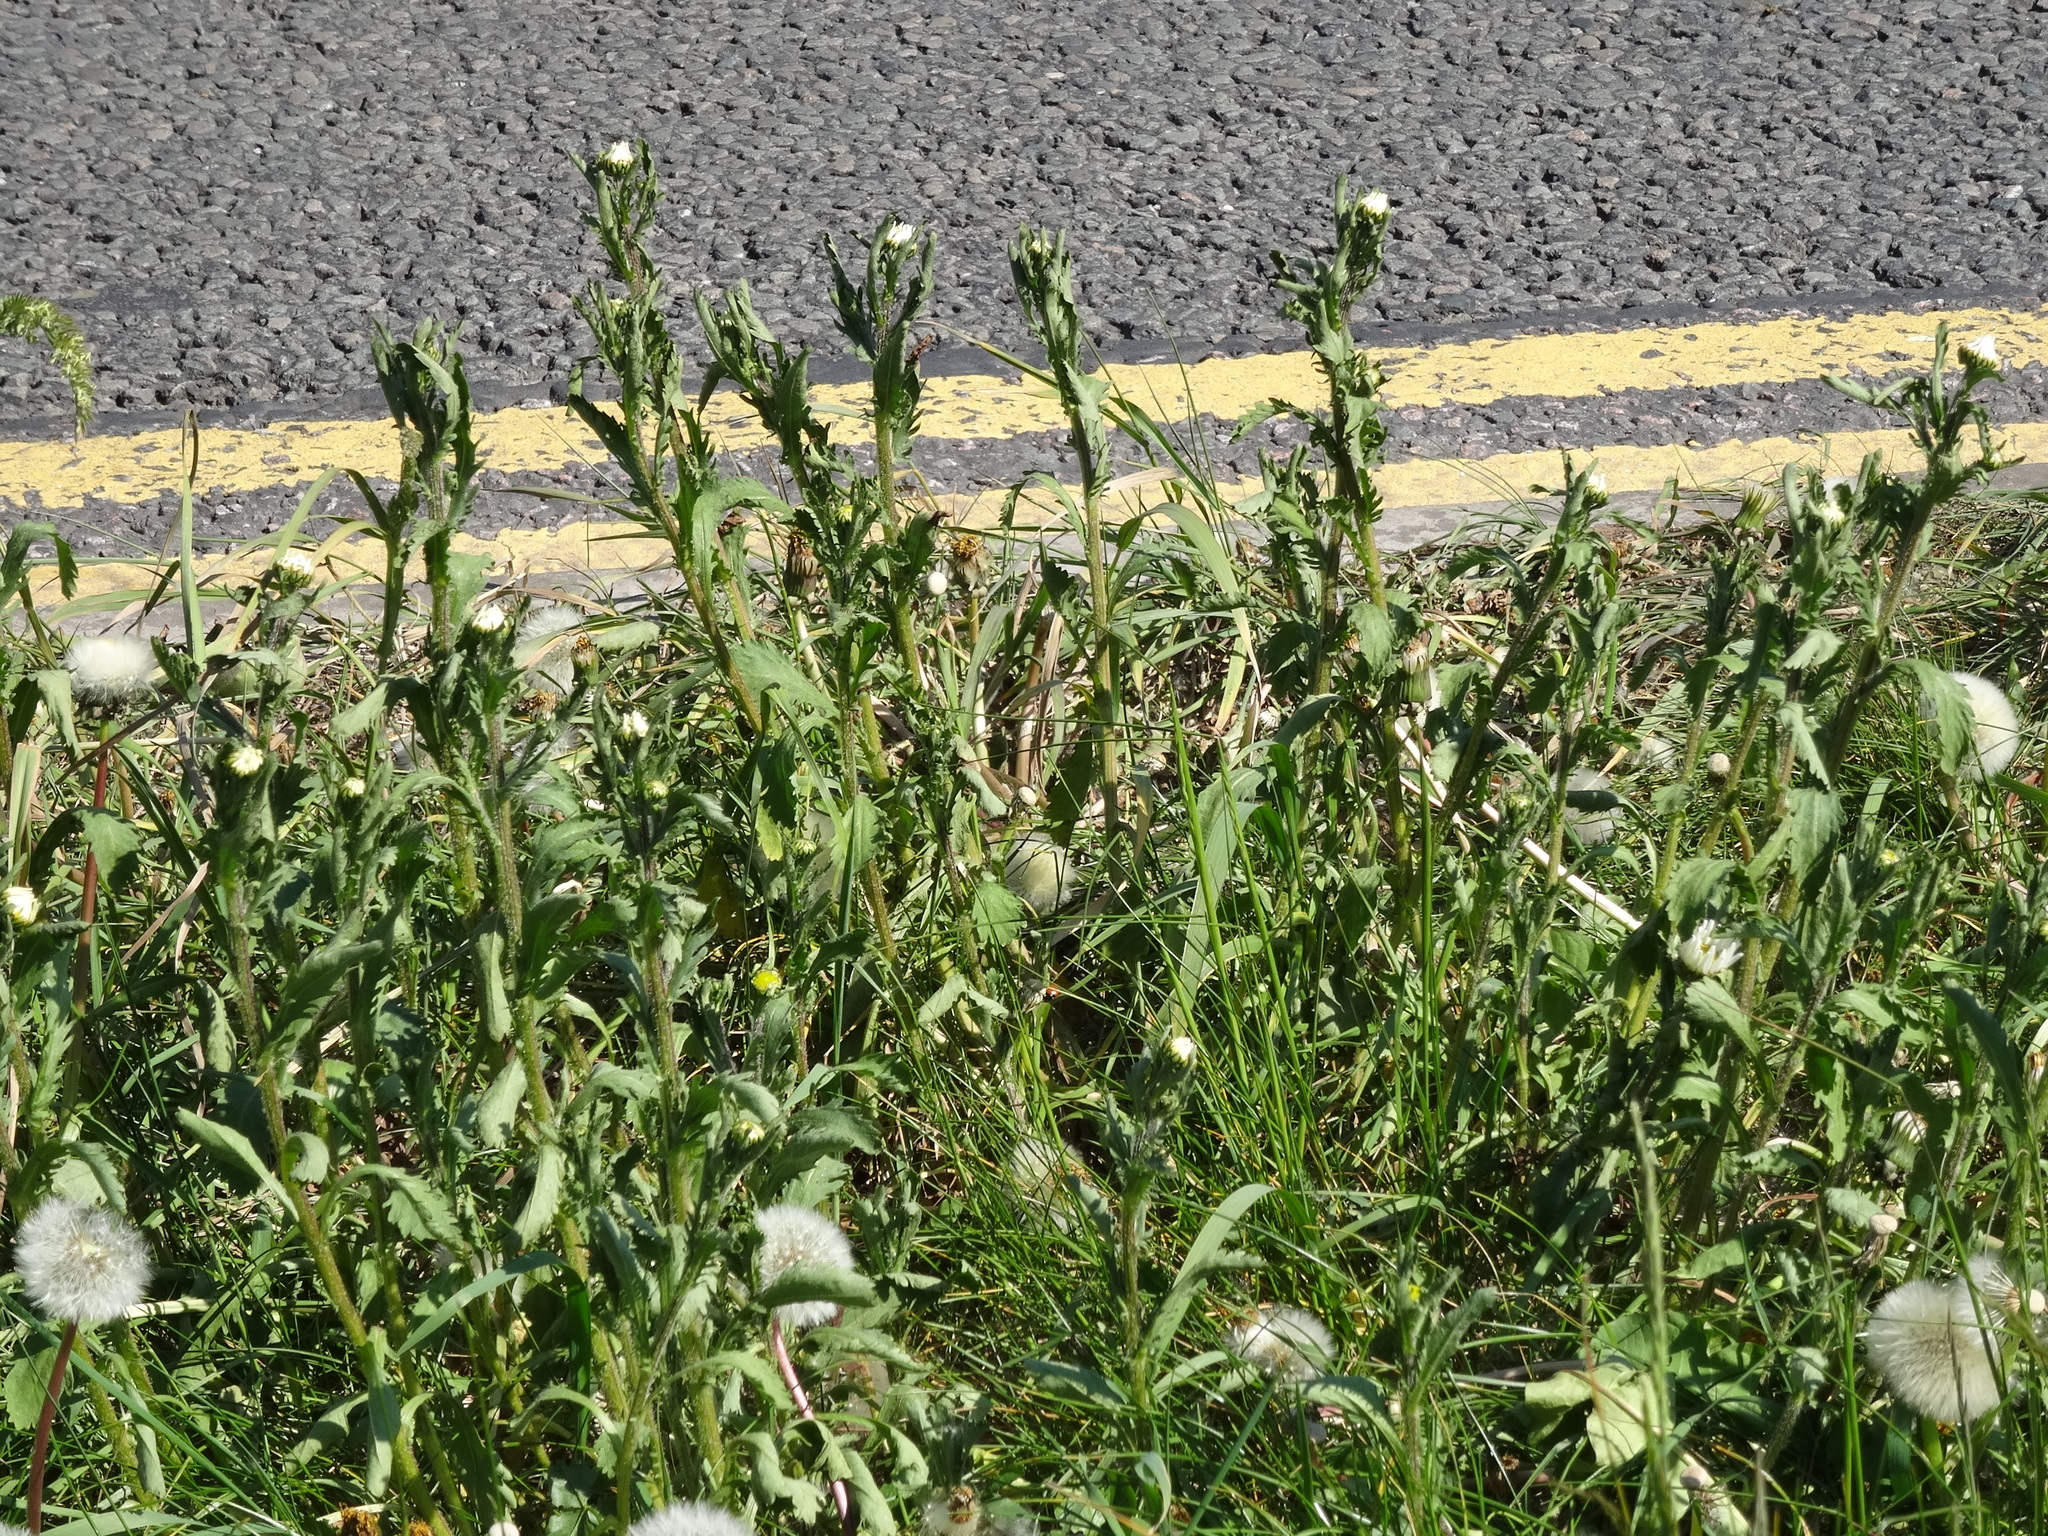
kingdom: Plantae
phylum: Tracheophyta
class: Magnoliopsida
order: Asterales
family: Asteraceae
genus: Leucanthemum
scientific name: Leucanthemum vulgare
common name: Oxeye daisy
